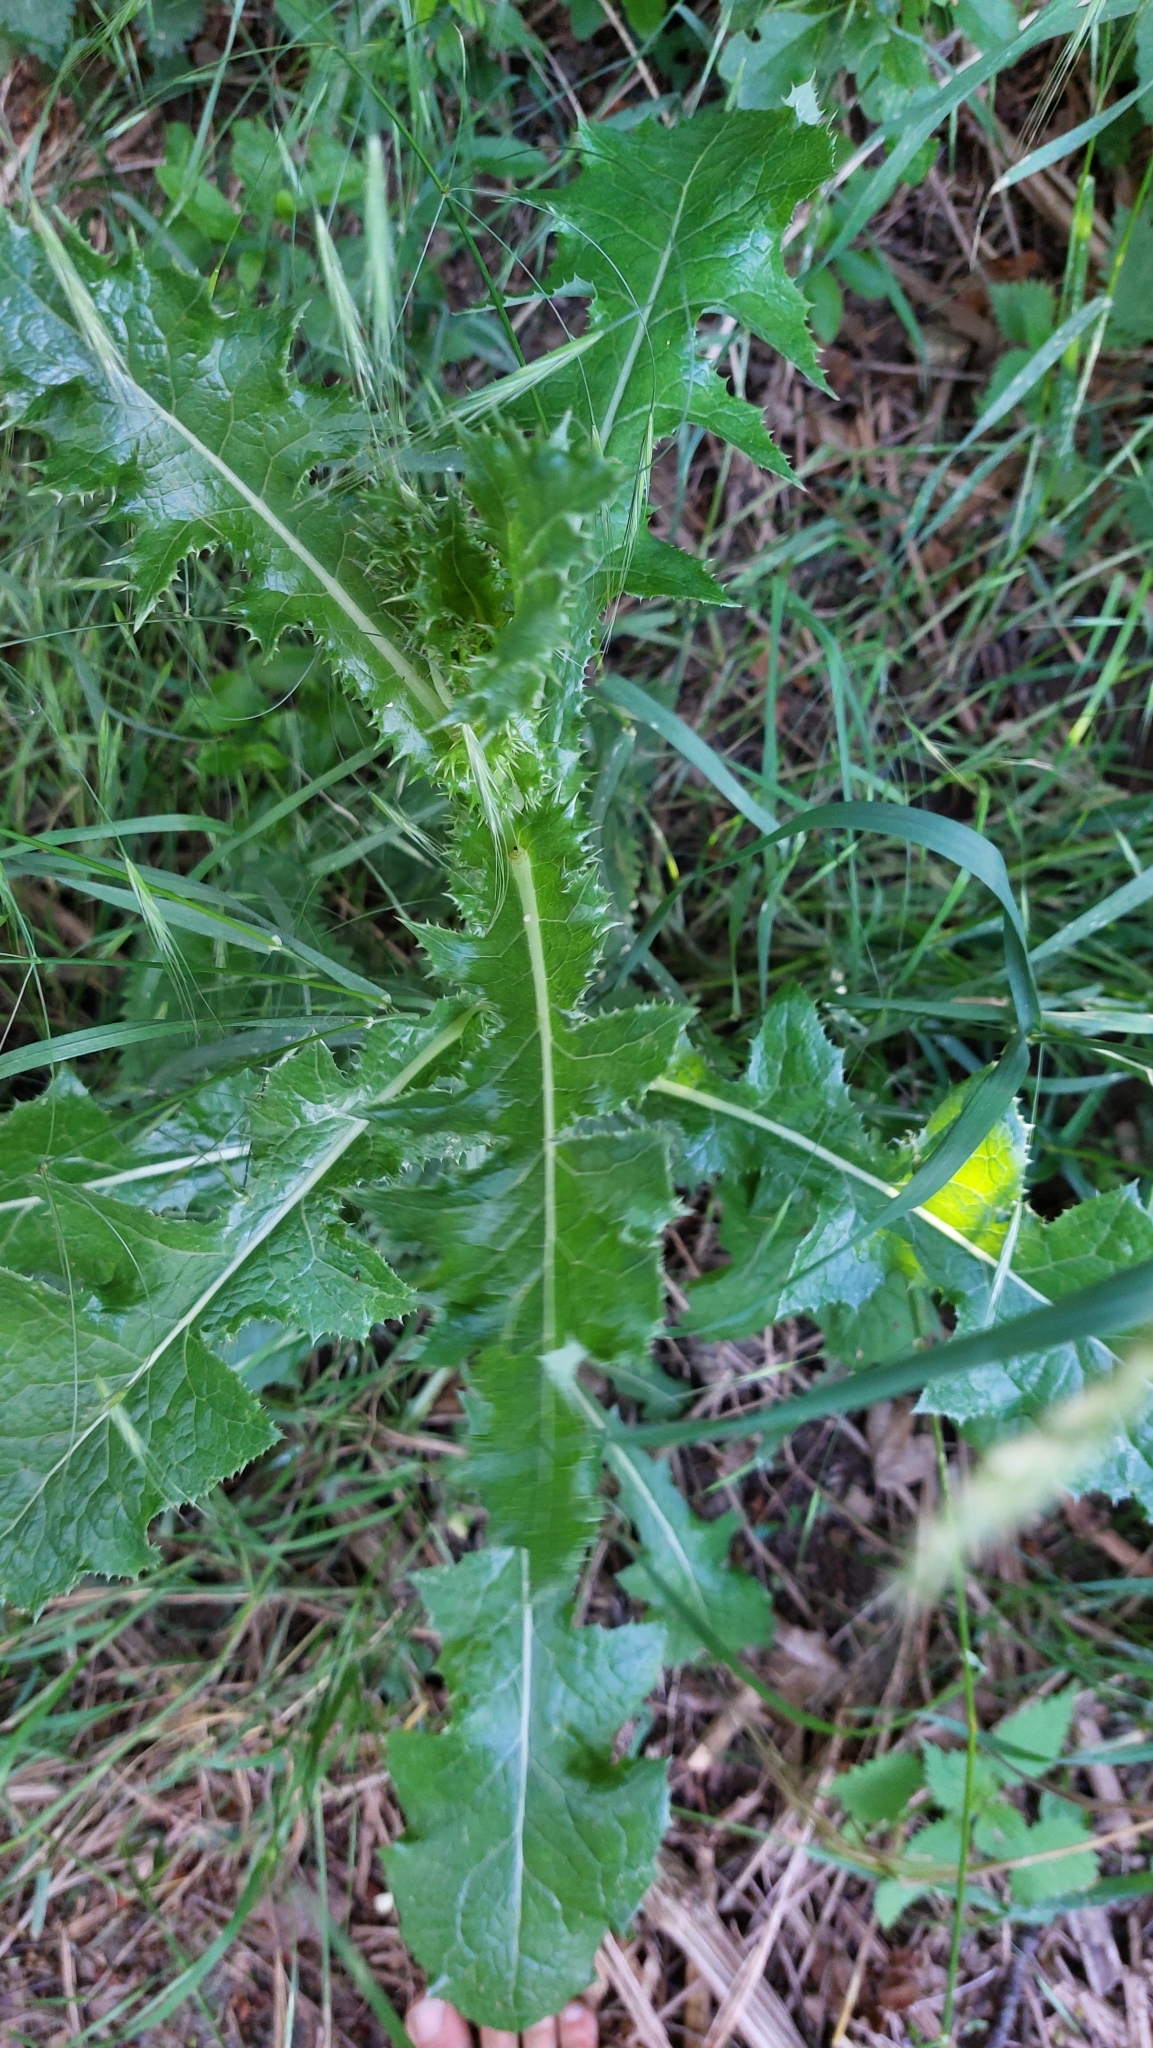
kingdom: Plantae
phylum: Tracheophyta
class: Magnoliopsida
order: Asterales
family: Asteraceae
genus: Sonchus
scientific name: Sonchus asper
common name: Prickly sow-thistle
